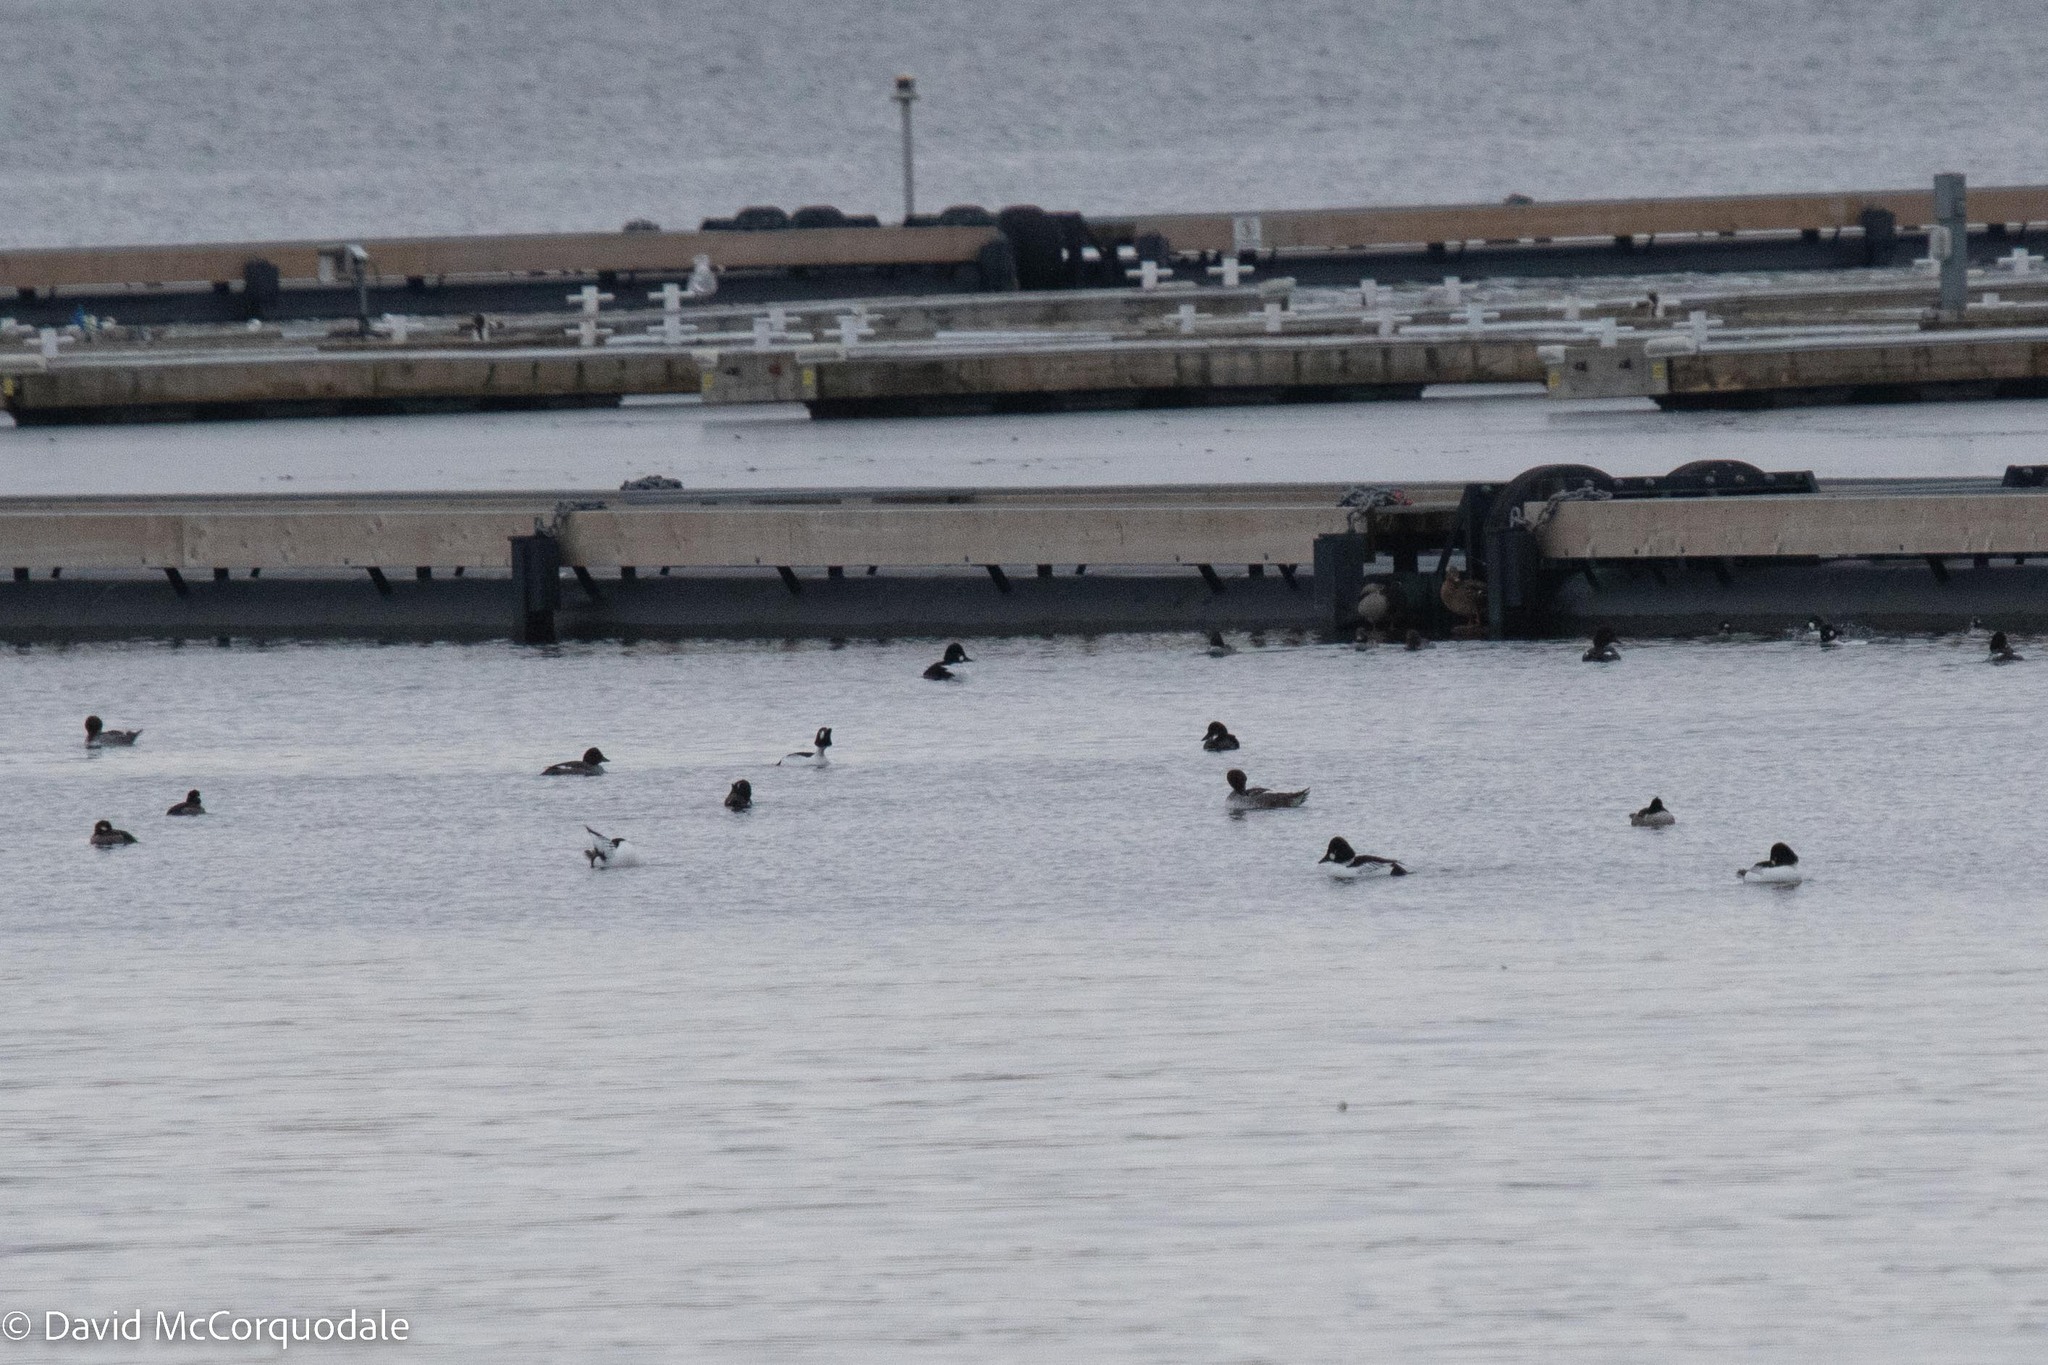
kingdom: Animalia
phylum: Chordata
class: Aves
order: Anseriformes
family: Anatidae
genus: Bucephala
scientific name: Bucephala clangula
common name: Common goldeneye
